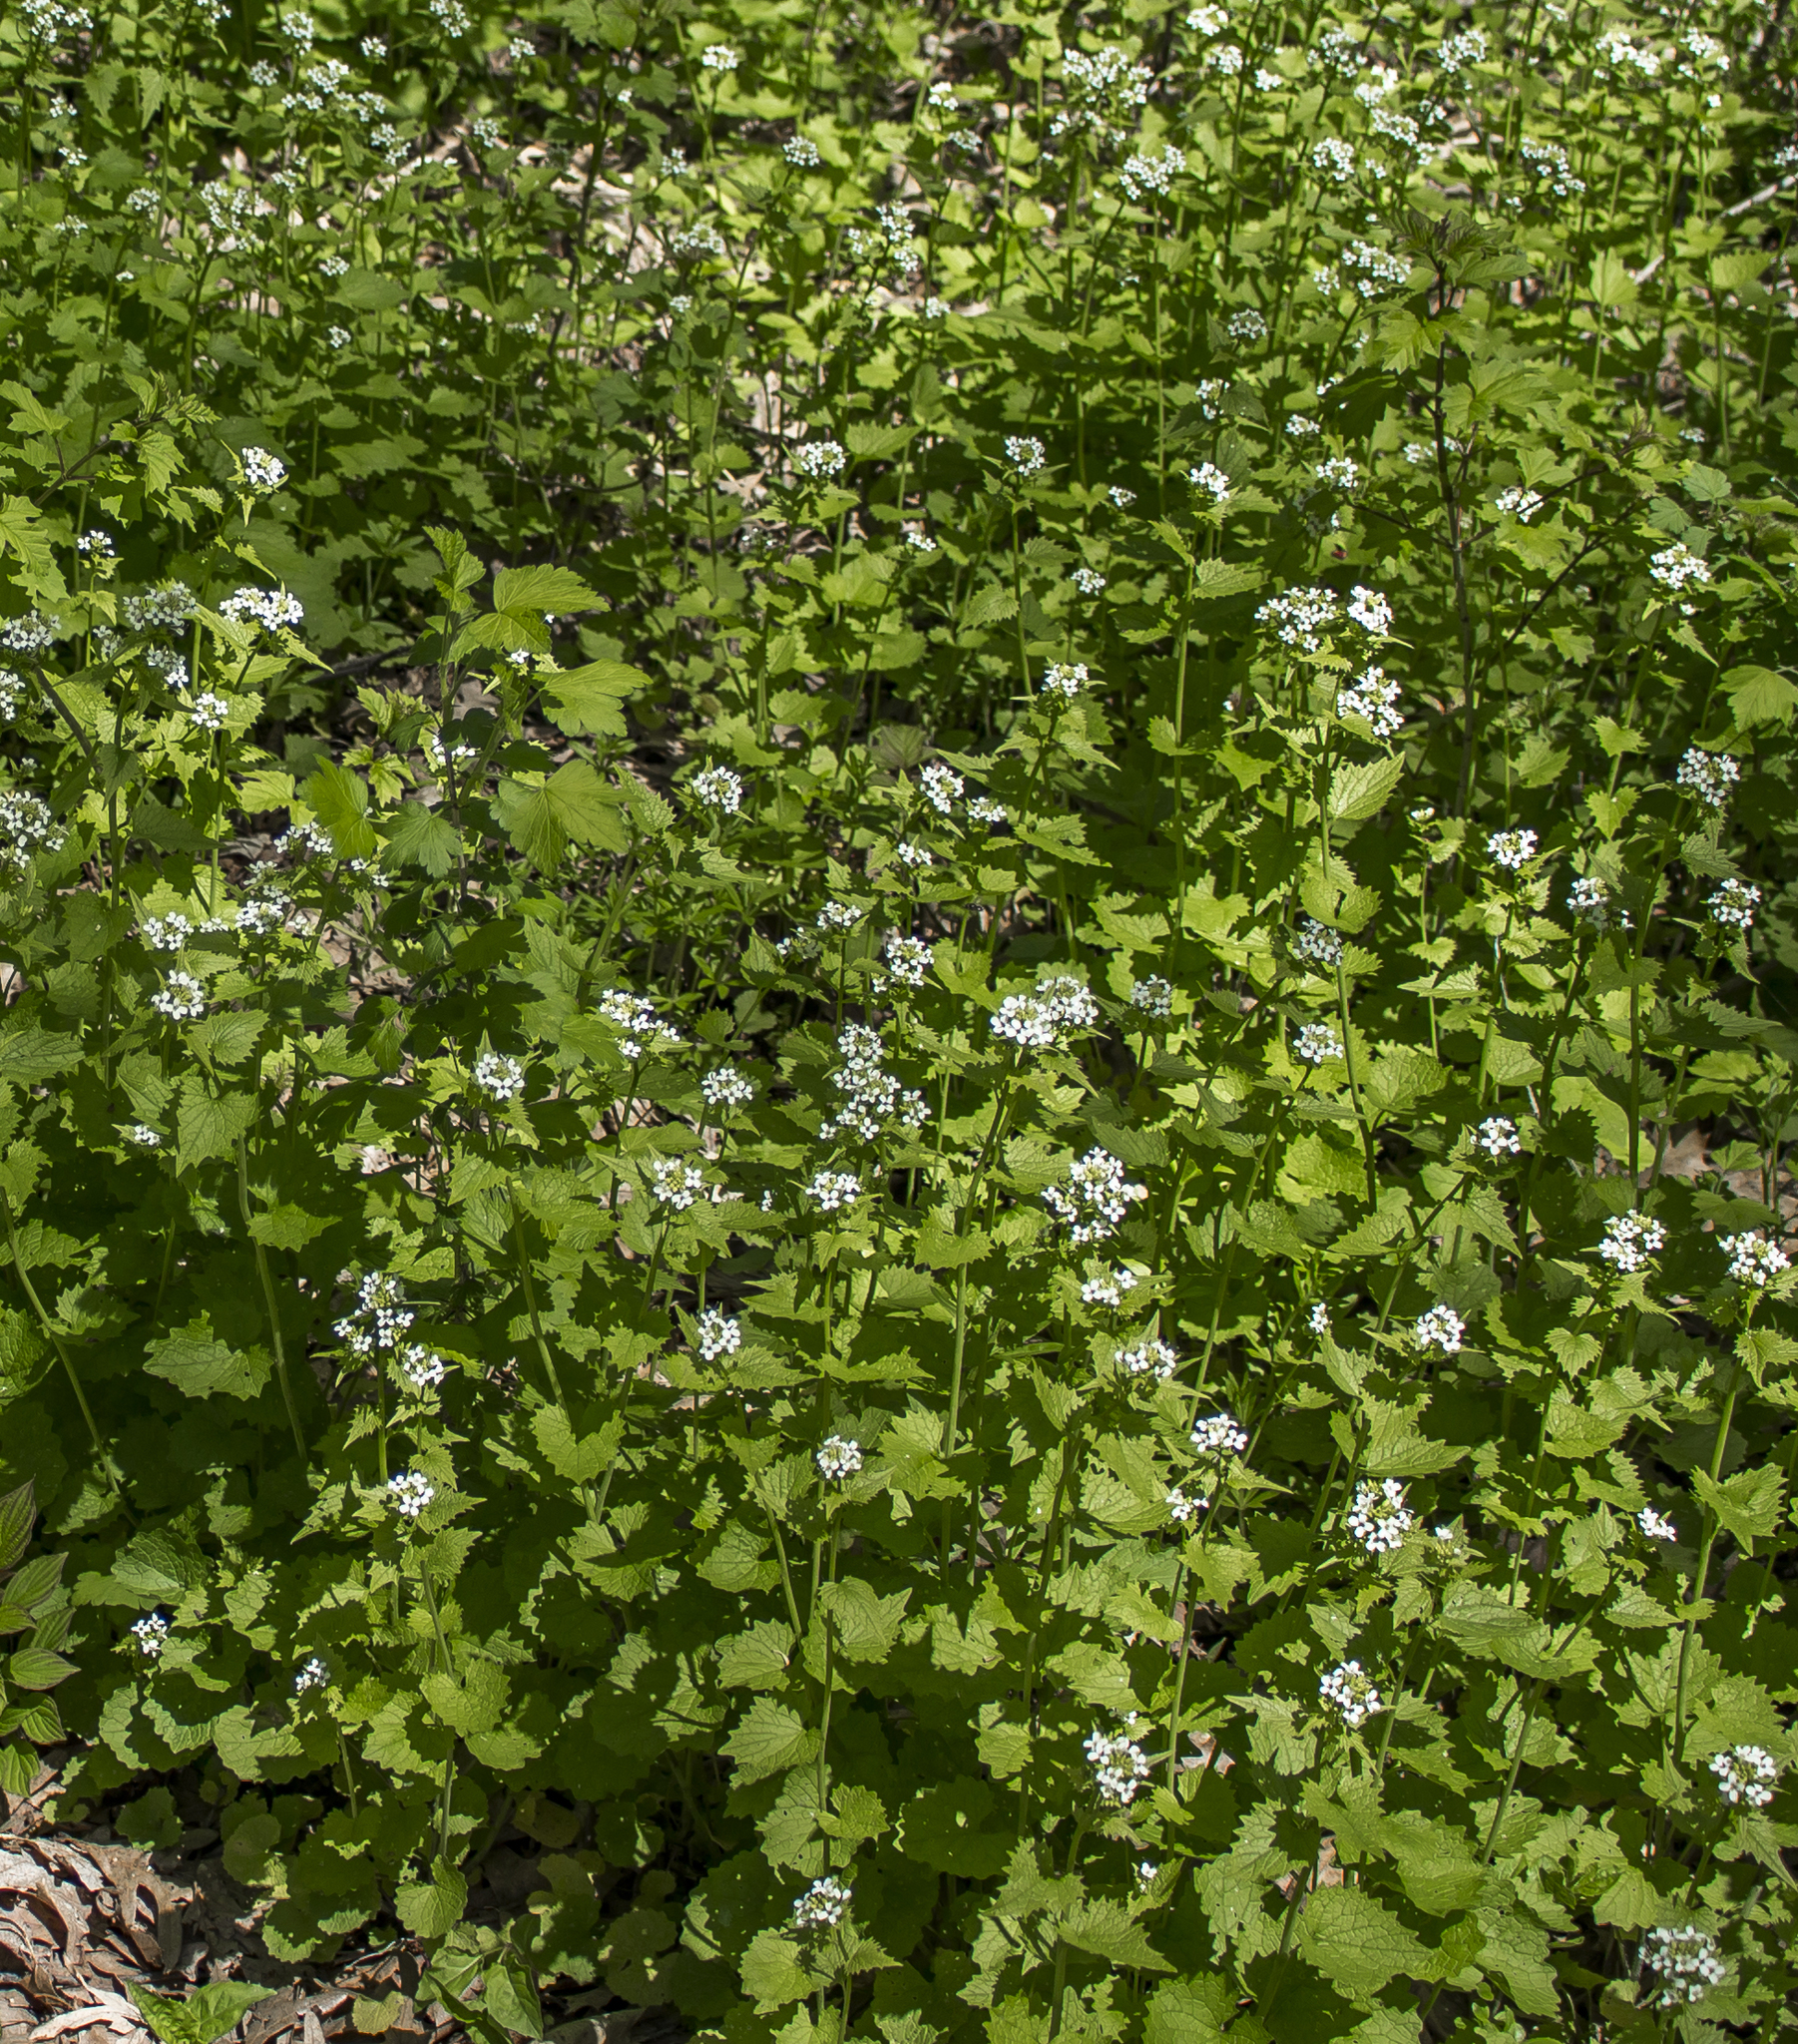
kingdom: Plantae
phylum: Tracheophyta
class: Magnoliopsida
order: Brassicales
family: Brassicaceae
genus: Alliaria
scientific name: Alliaria petiolata
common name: Garlic mustard
